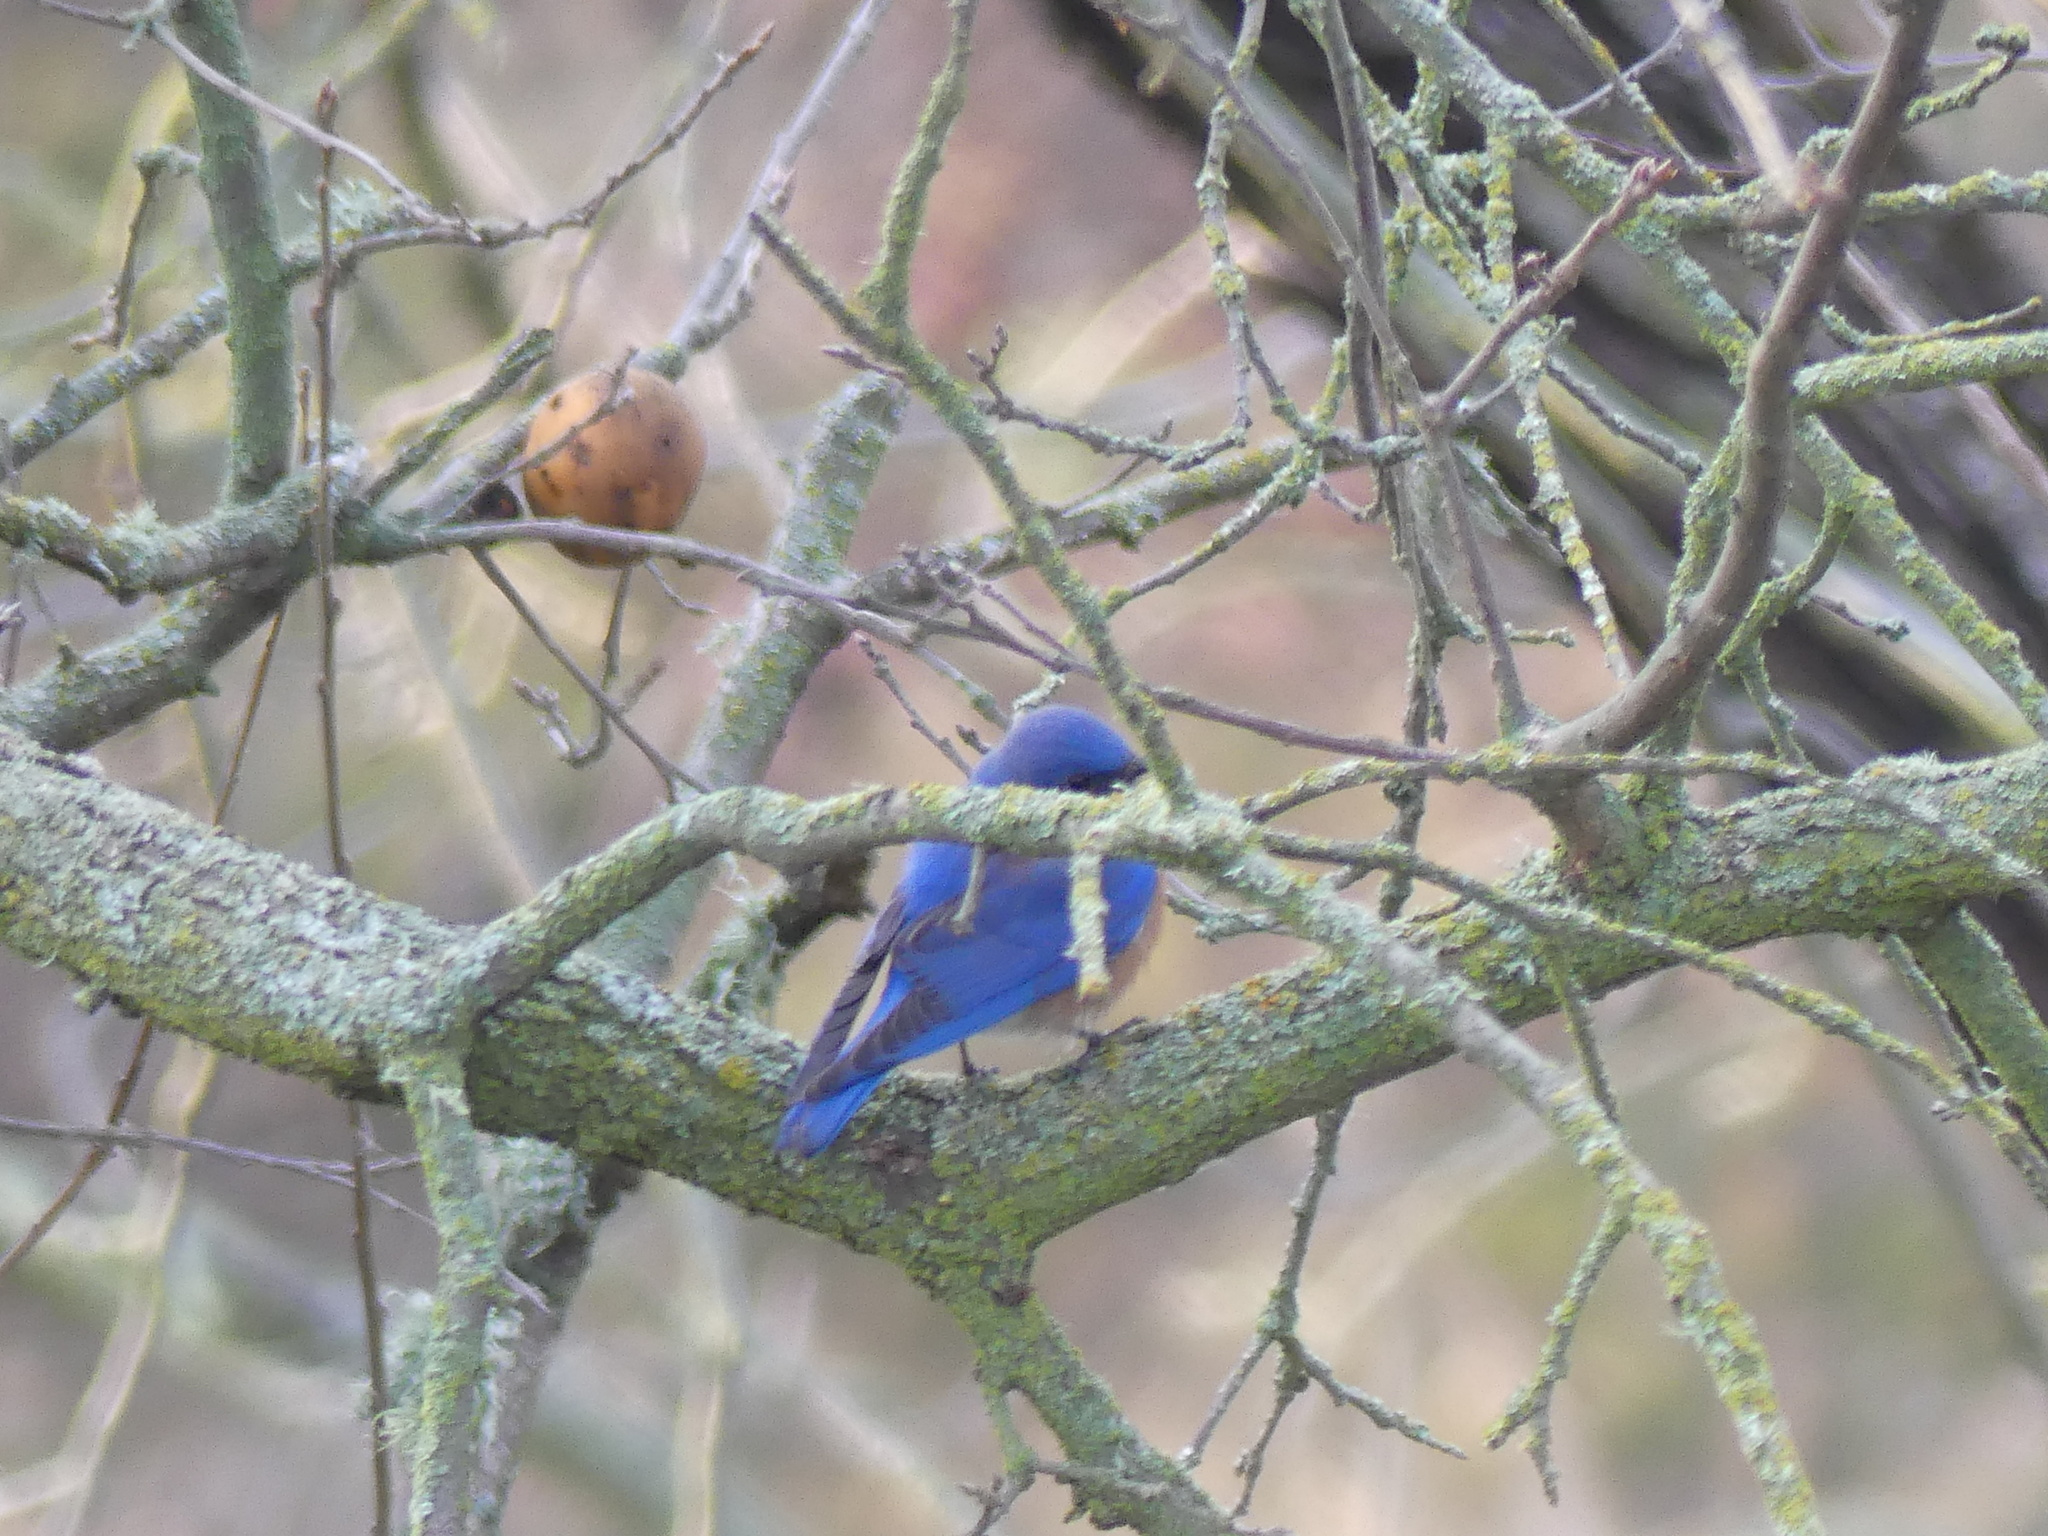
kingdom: Animalia
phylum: Chordata
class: Aves
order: Passeriformes
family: Turdidae
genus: Sialia
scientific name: Sialia mexicana
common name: Western bluebird
